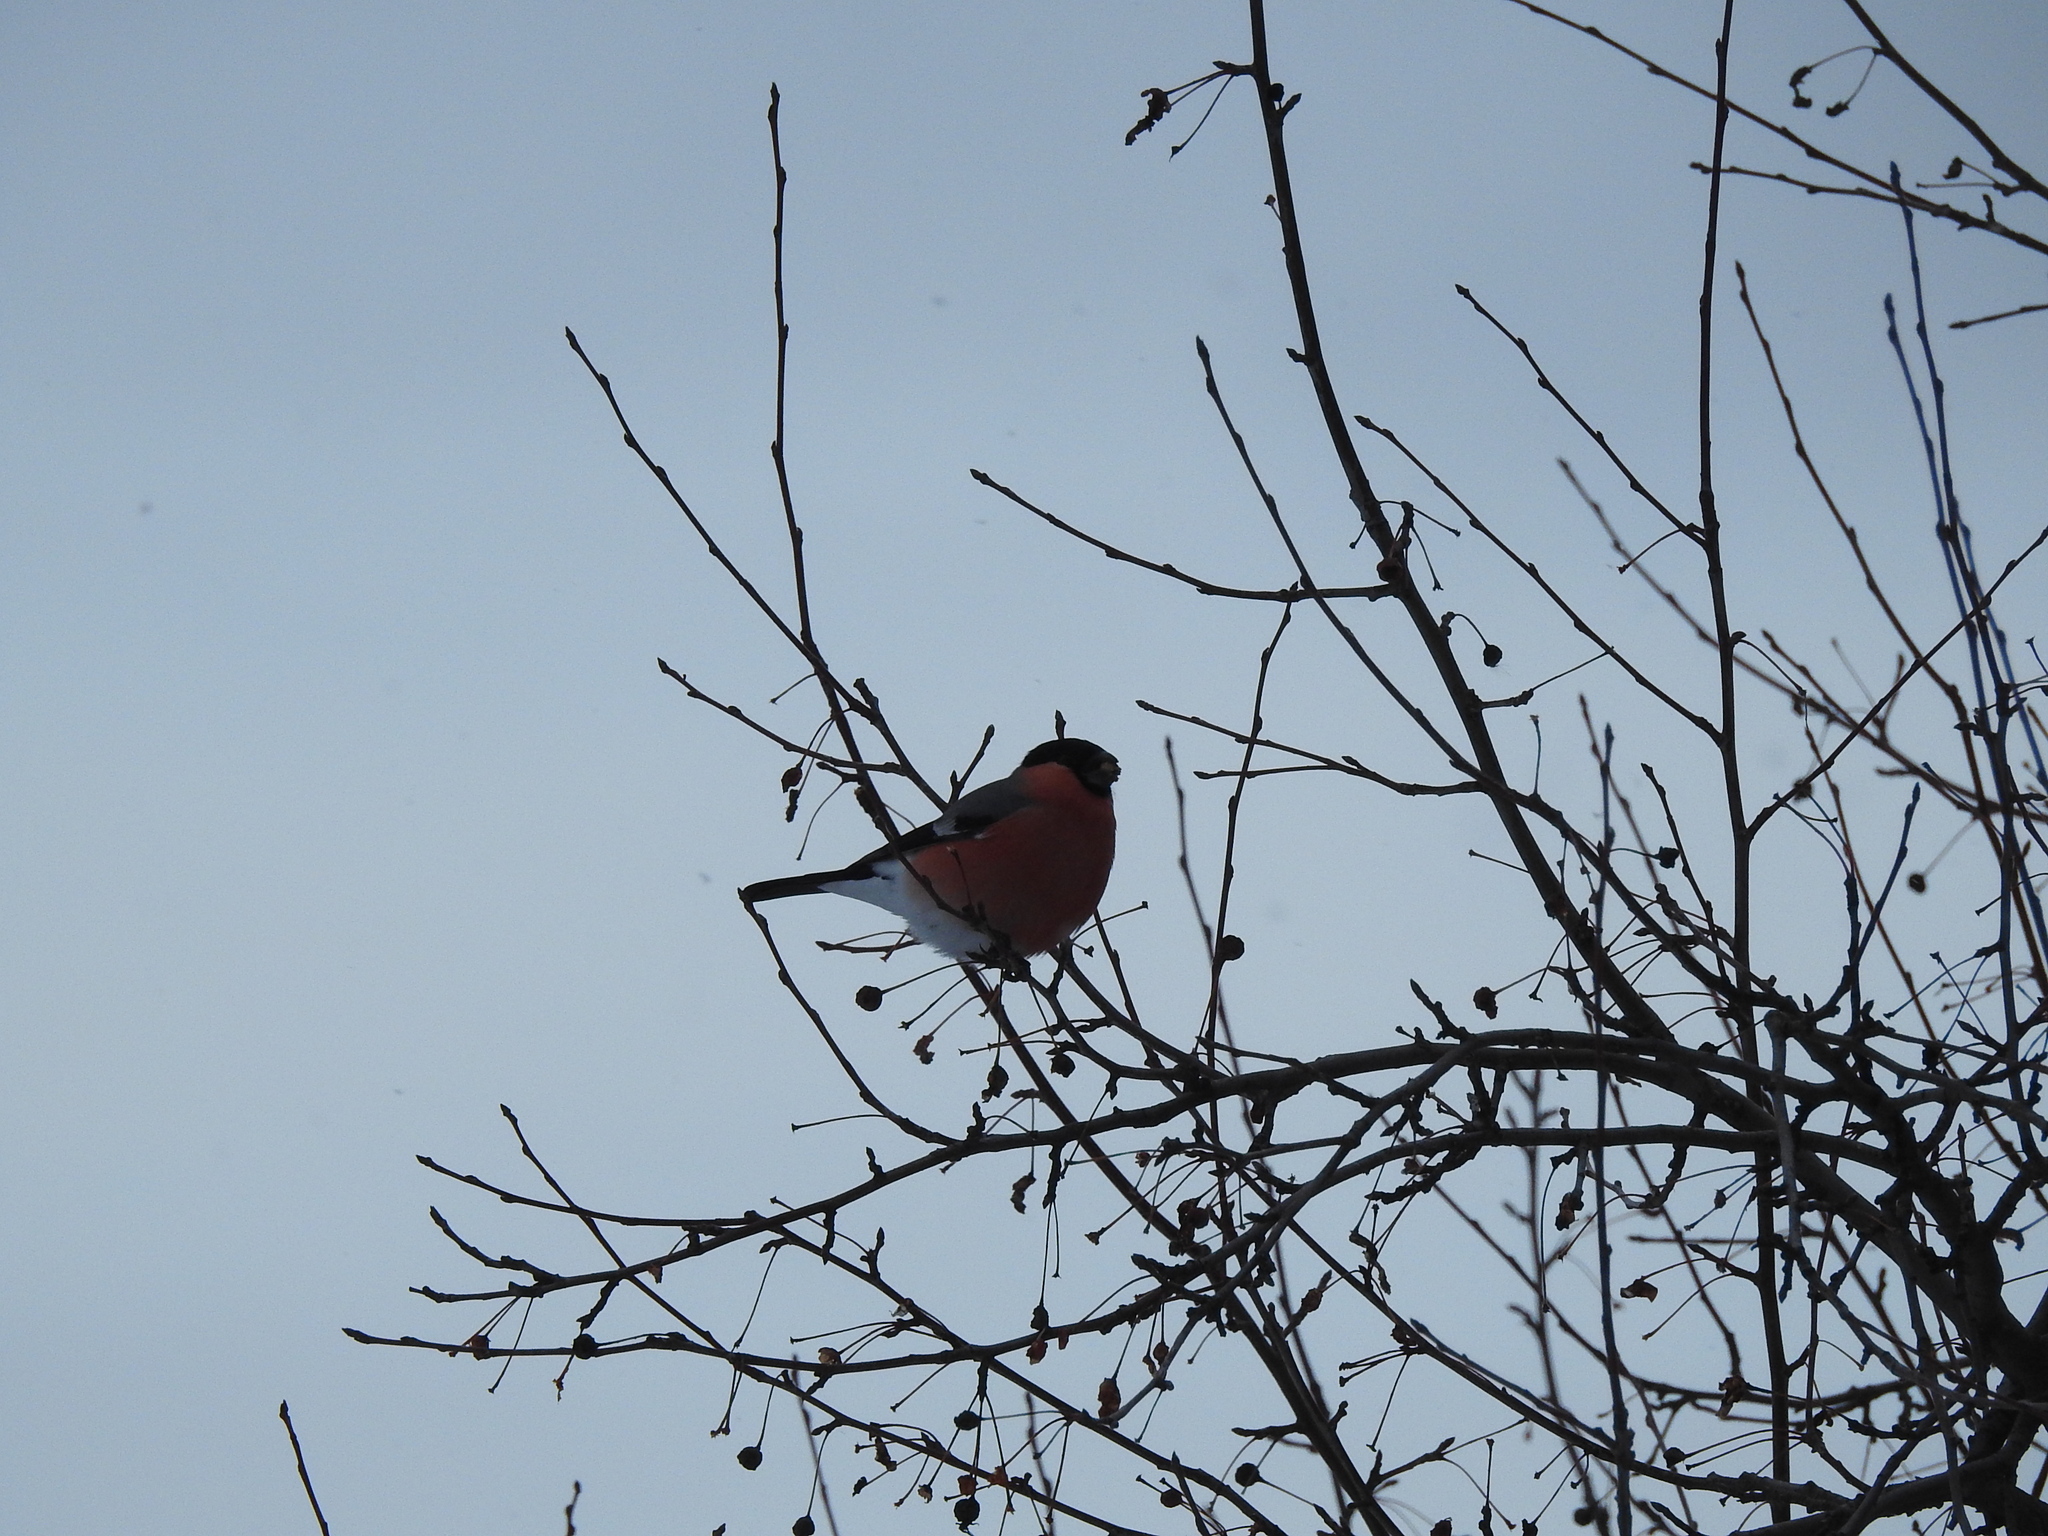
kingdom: Animalia
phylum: Chordata
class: Aves
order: Passeriformes
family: Fringillidae
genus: Pyrrhula
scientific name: Pyrrhula pyrrhula
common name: Eurasian bullfinch
